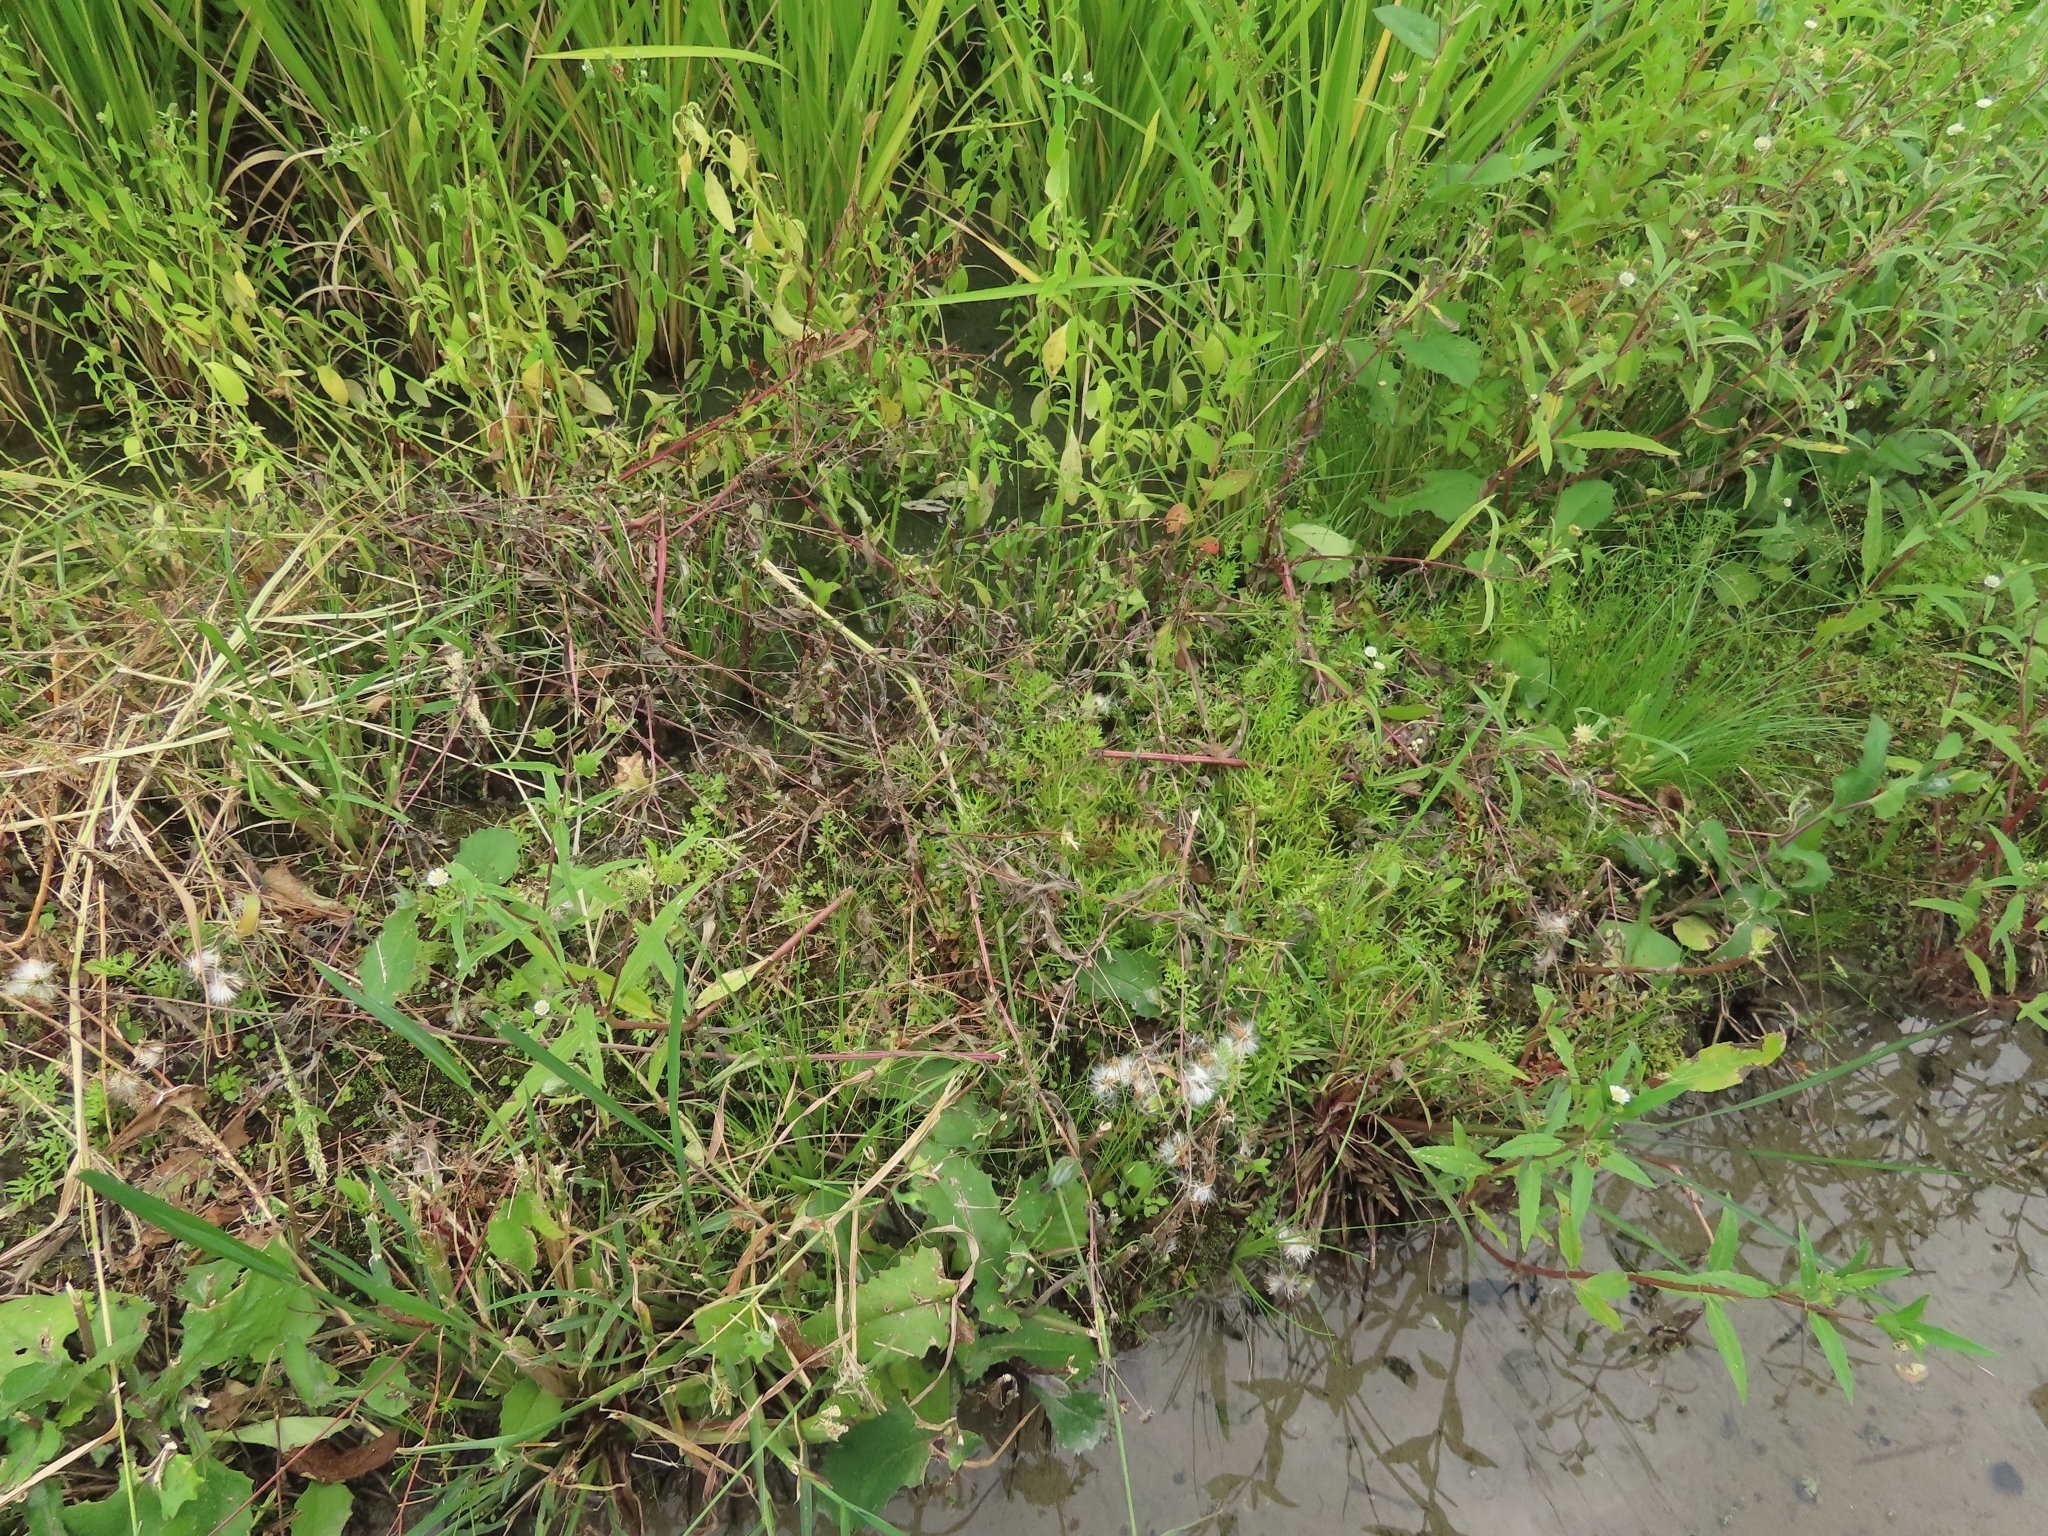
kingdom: Plantae
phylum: Tracheophyta
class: Polypodiopsida
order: Polypodiales
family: Pteridaceae
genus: Ceratopteris
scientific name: Ceratopteris thalictroides
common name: Water fern
